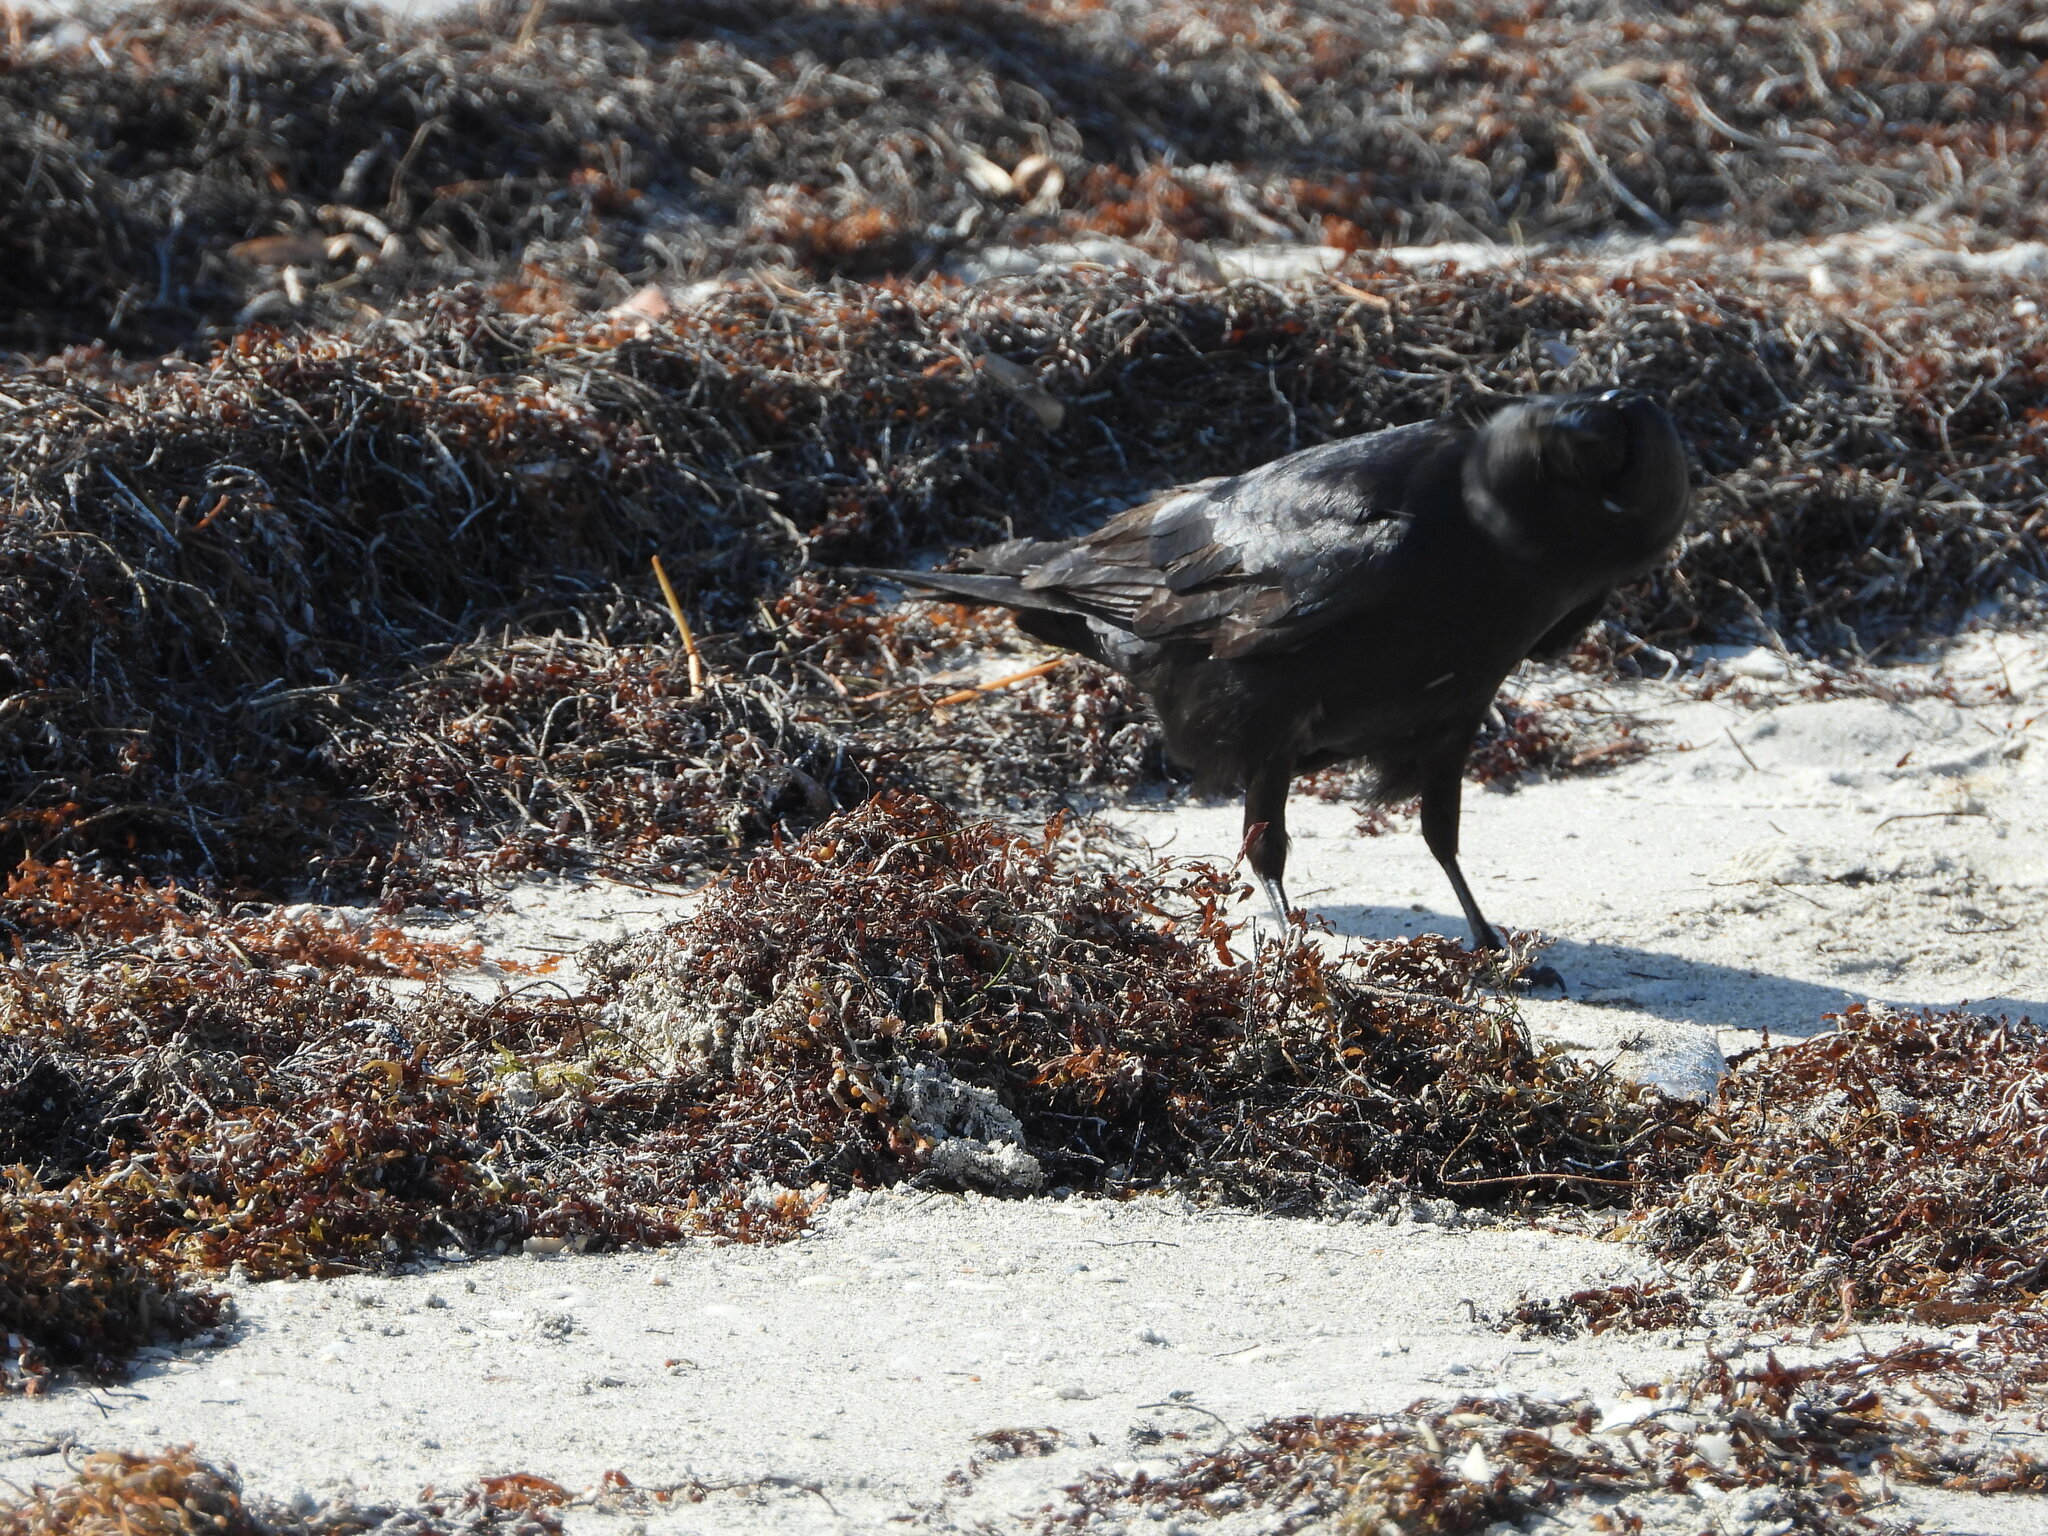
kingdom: Animalia
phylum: Chordata
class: Aves
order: Passeriformes
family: Corvidae
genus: Corvus
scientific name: Corvus ossifragus
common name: Fish crow
